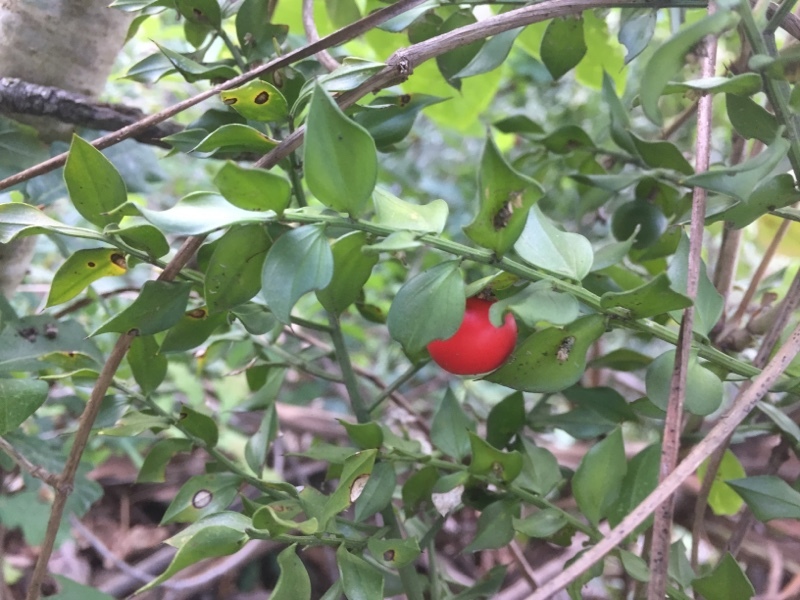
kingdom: Plantae
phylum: Tracheophyta
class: Liliopsida
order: Asparagales
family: Asparagaceae
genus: Ruscus
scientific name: Ruscus aculeatus
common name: Butcher's-broom
